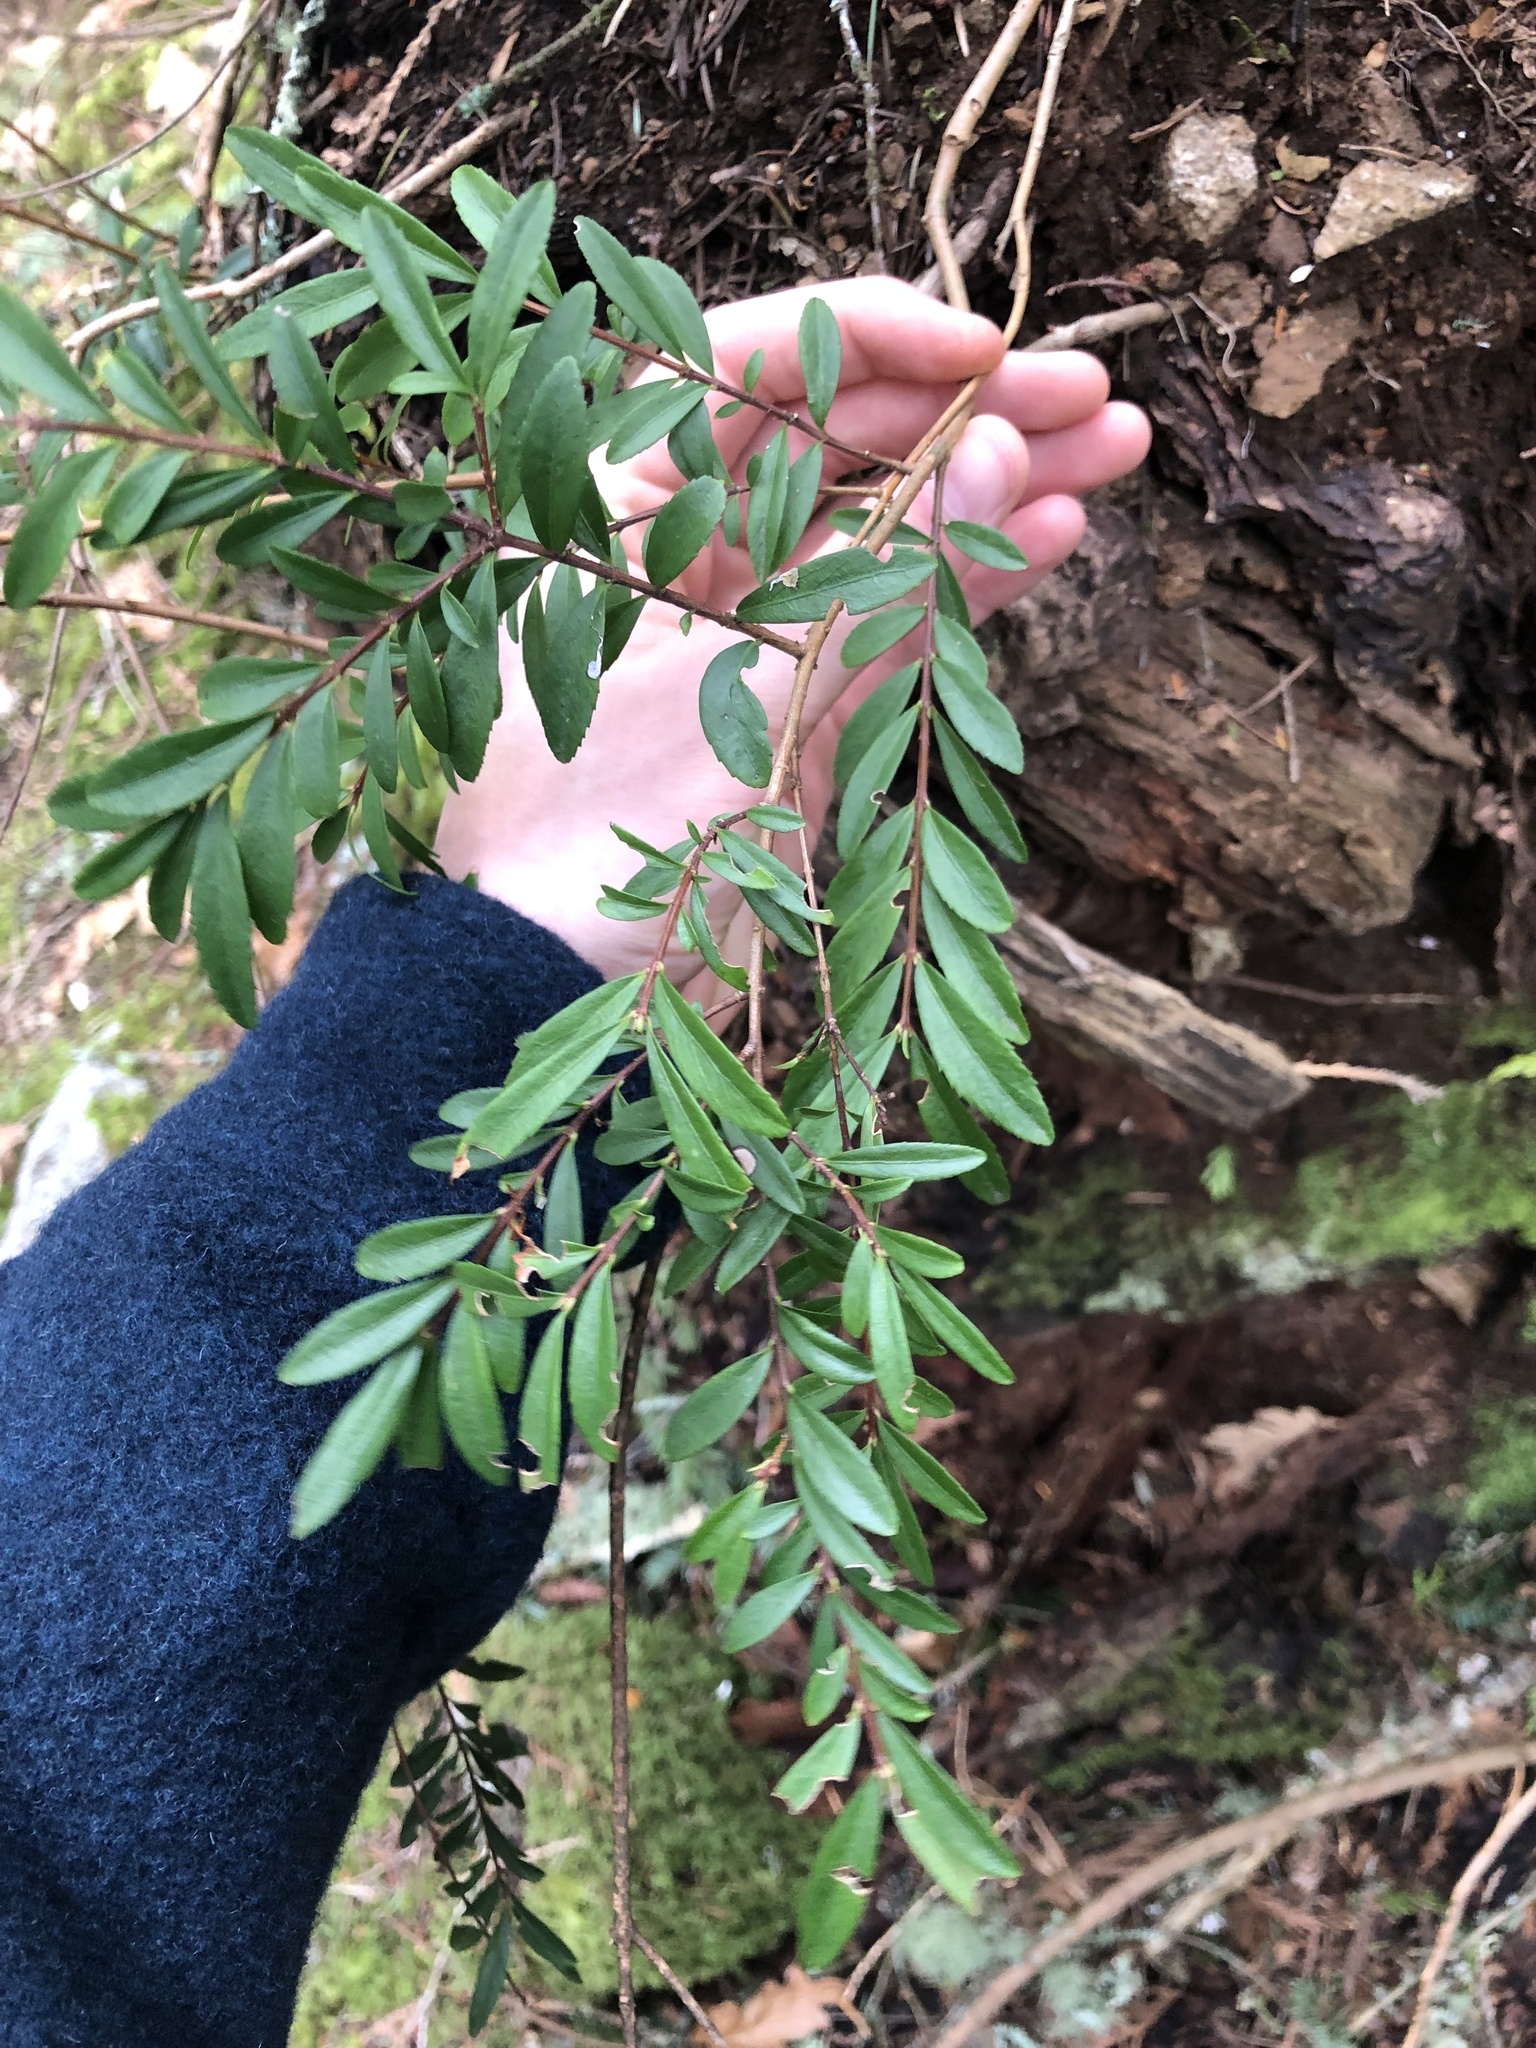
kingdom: Plantae
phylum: Tracheophyta
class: Magnoliopsida
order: Celastrales
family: Celastraceae
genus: Paxistima
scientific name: Paxistima myrsinites
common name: Mountain-lover
